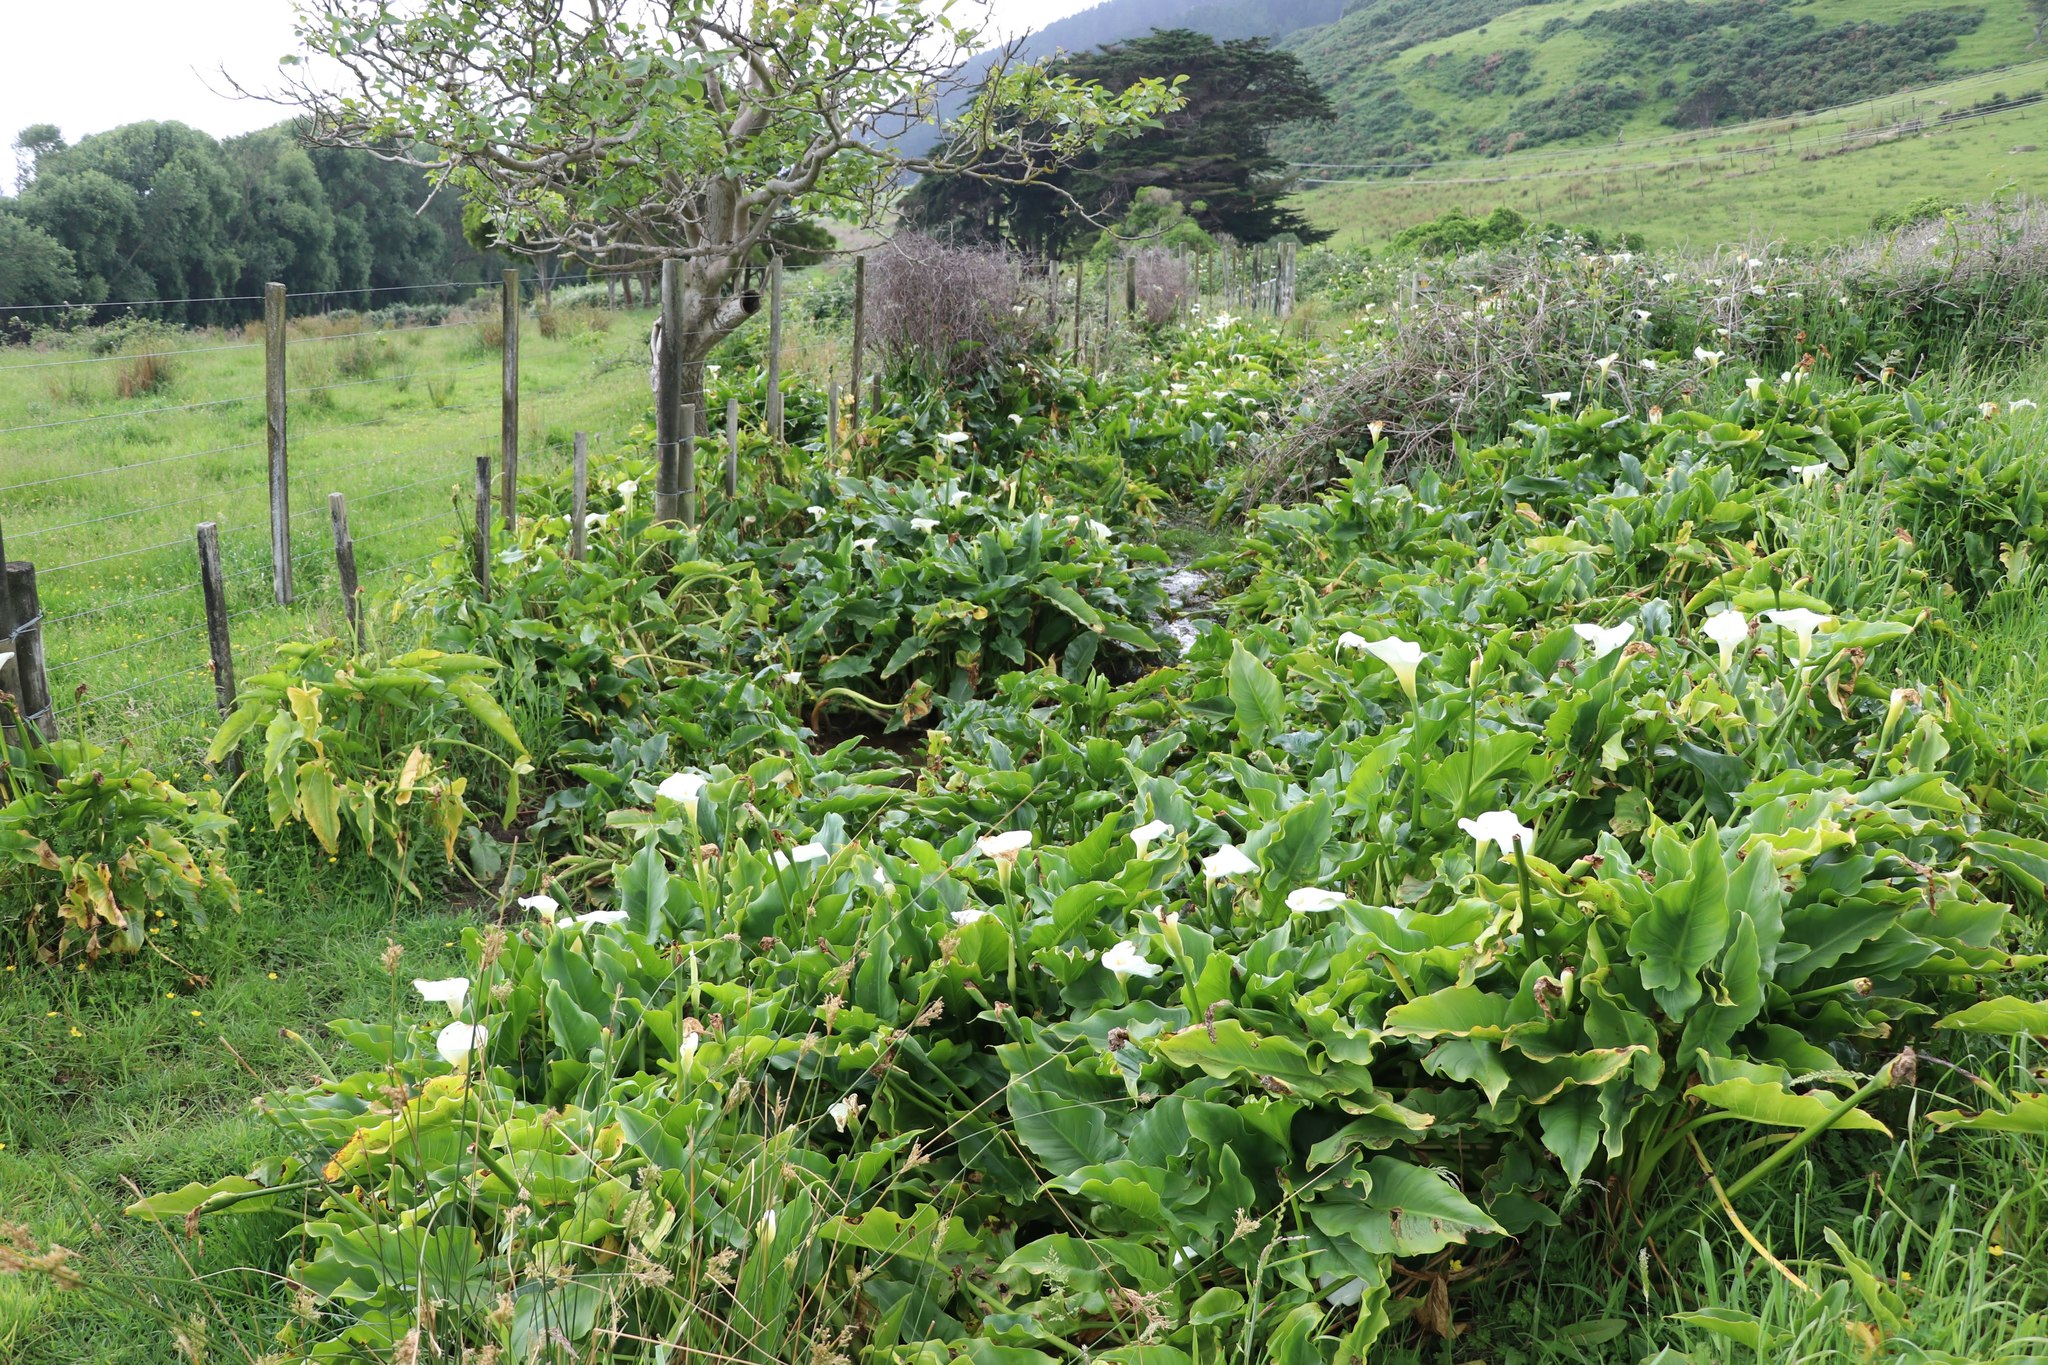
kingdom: Plantae
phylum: Tracheophyta
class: Liliopsida
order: Alismatales
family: Araceae
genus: Zantedeschia
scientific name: Zantedeschia aethiopica
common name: Altar-lily
